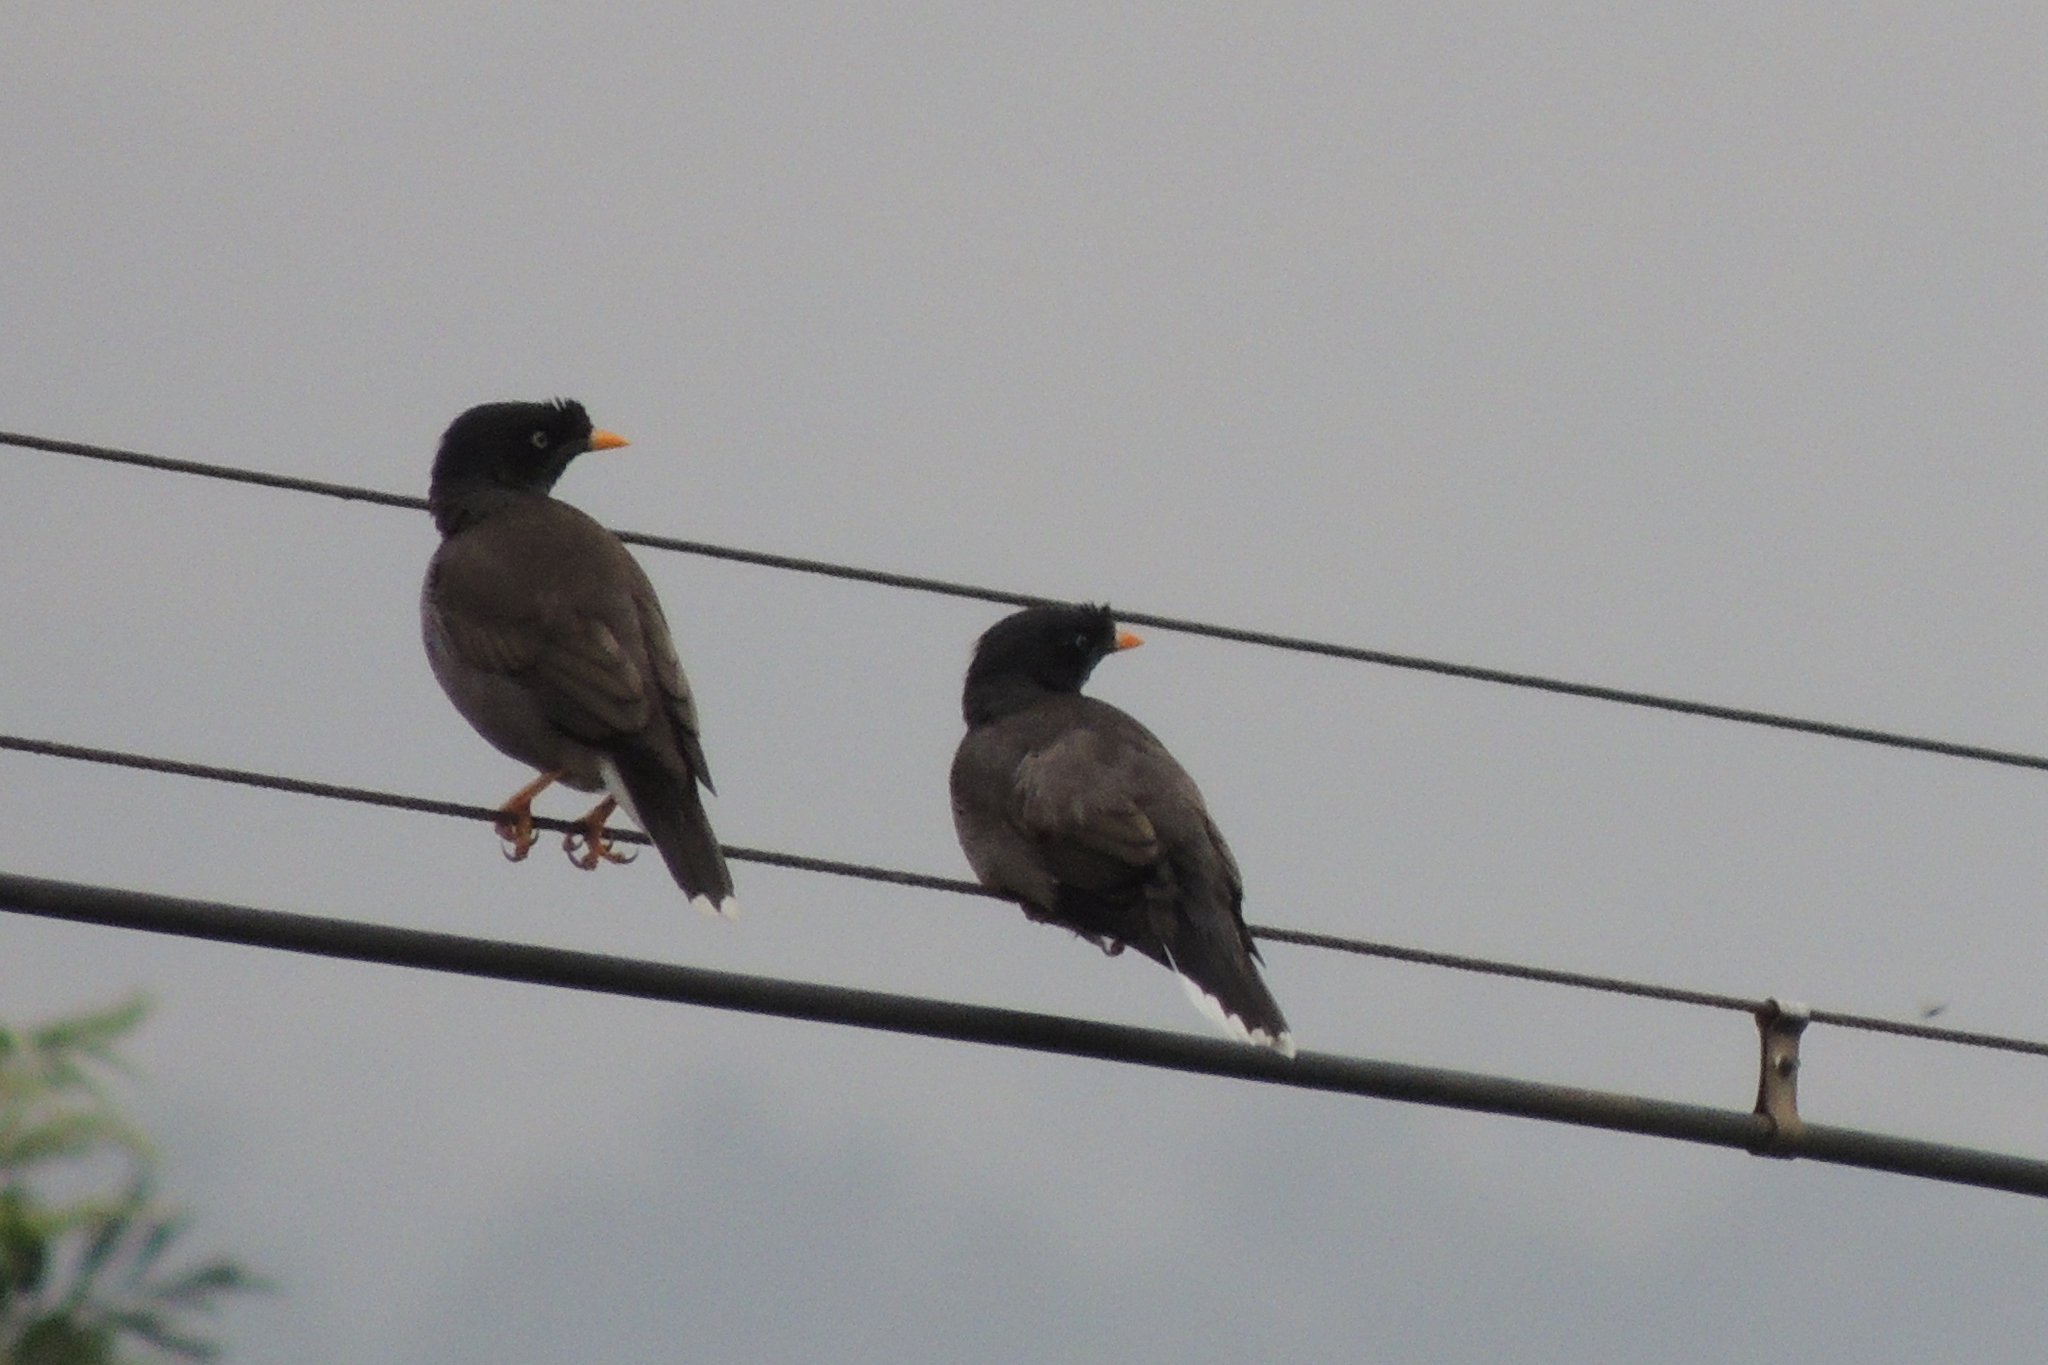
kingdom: Animalia
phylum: Chordata
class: Aves
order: Passeriformes
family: Sturnidae
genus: Acridotheres
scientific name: Acridotheres fuscus
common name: Jungle myna
